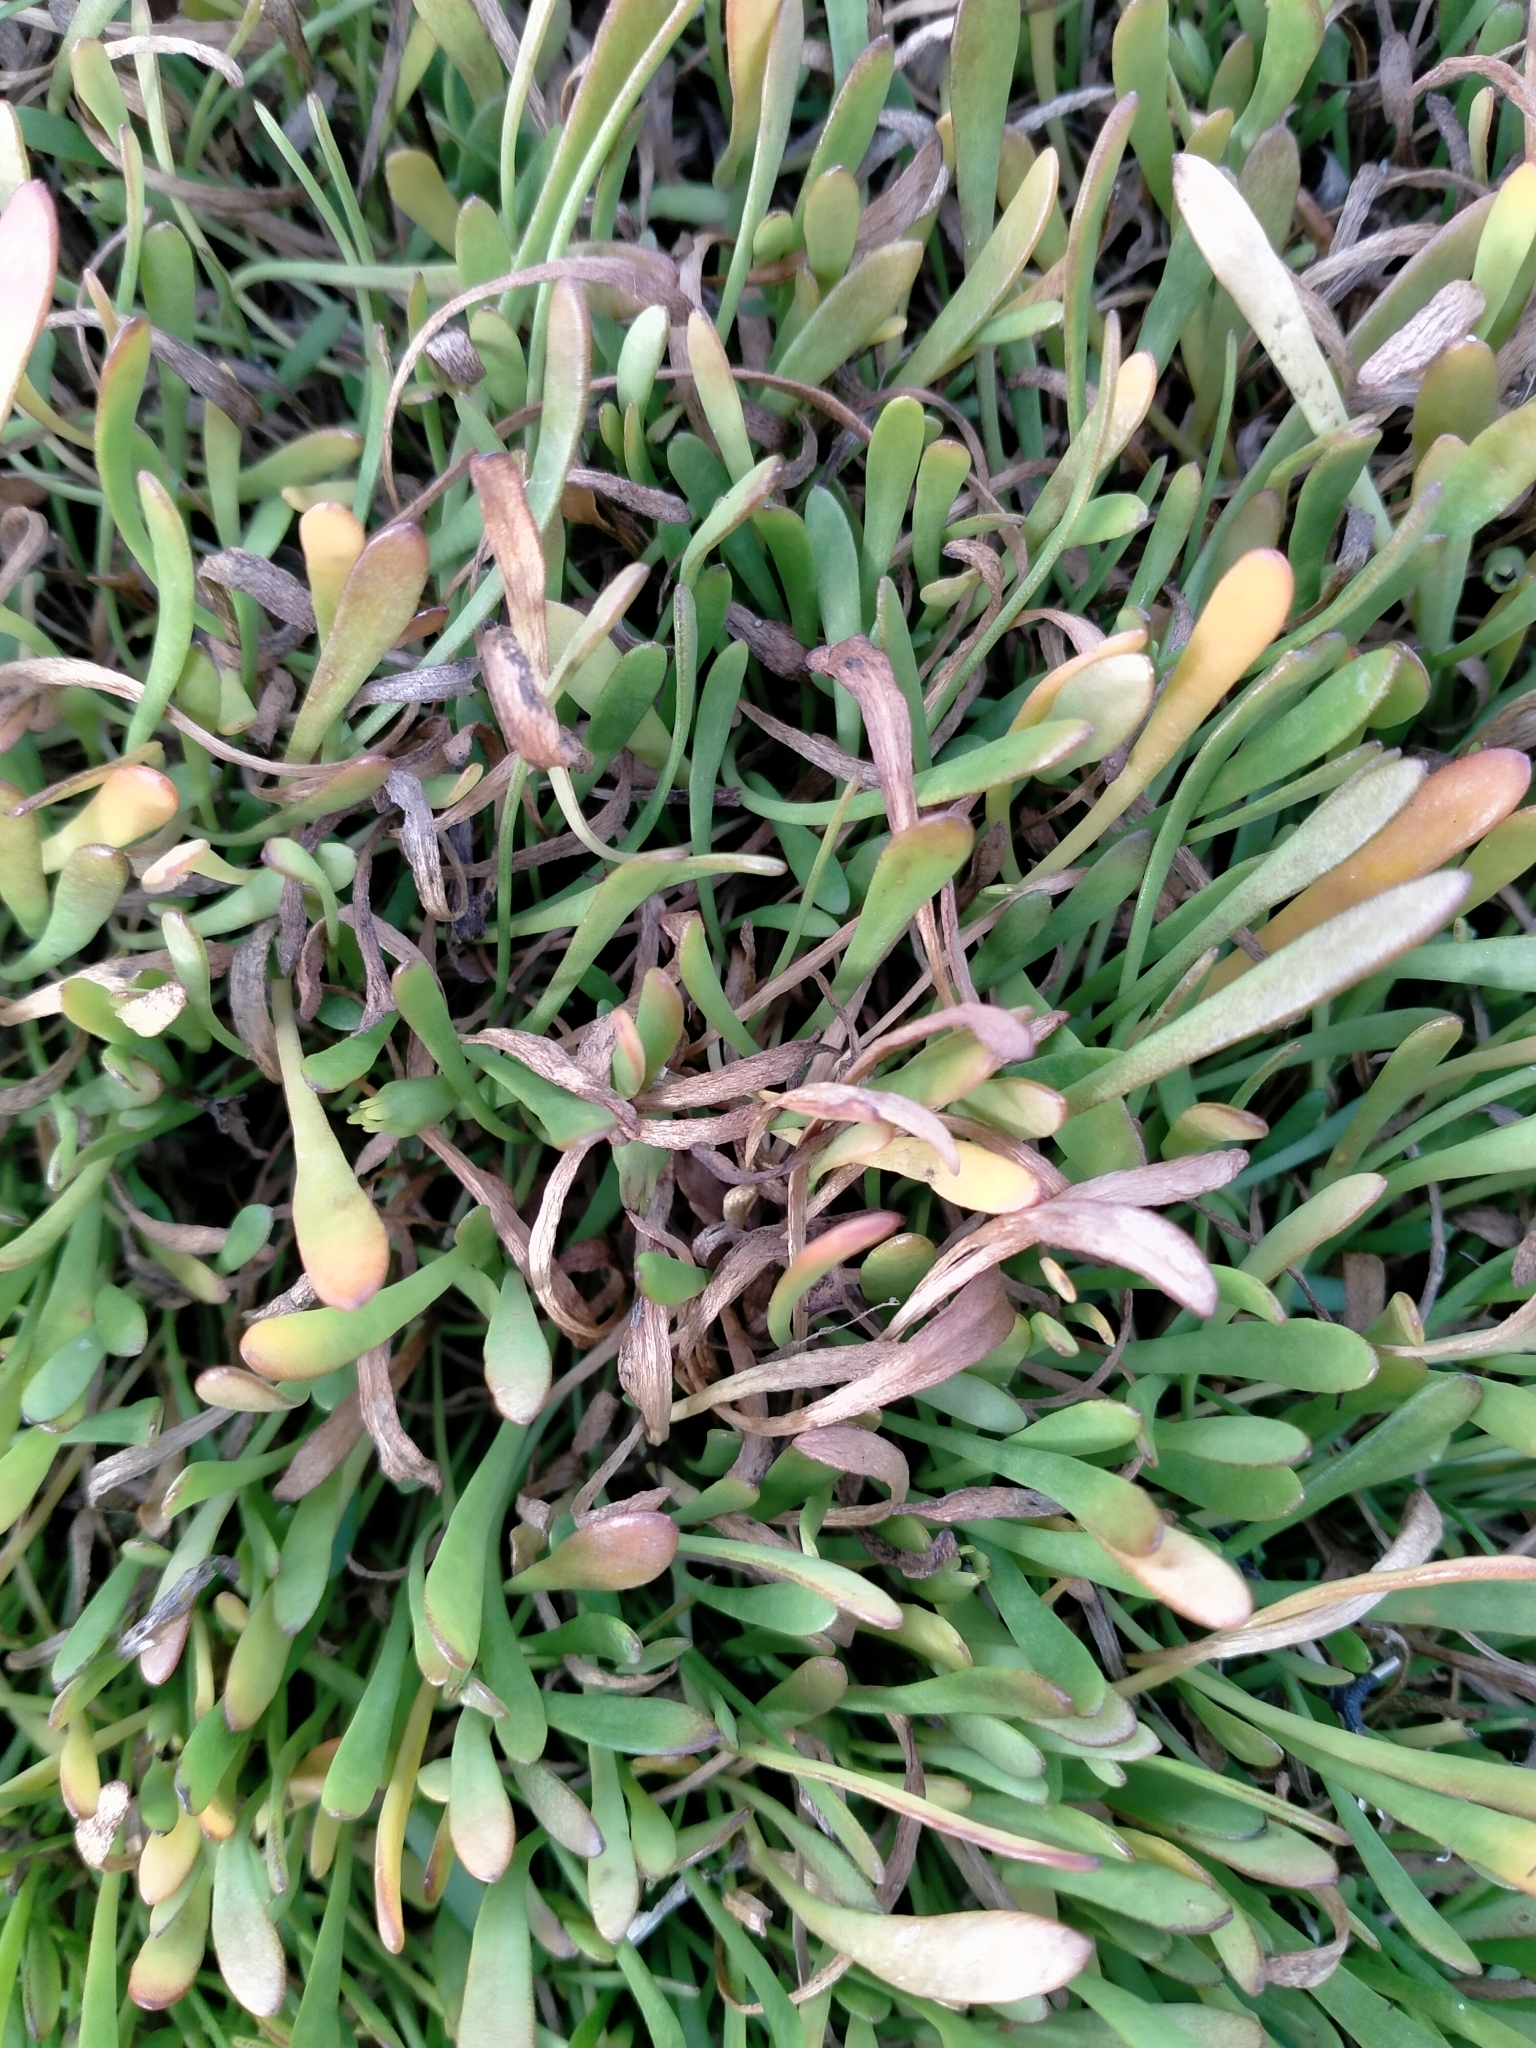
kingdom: Plantae
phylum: Tracheophyta
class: Magnoliopsida
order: Asterales
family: Goodeniaceae
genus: Goodenia
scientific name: Goodenia radicans
